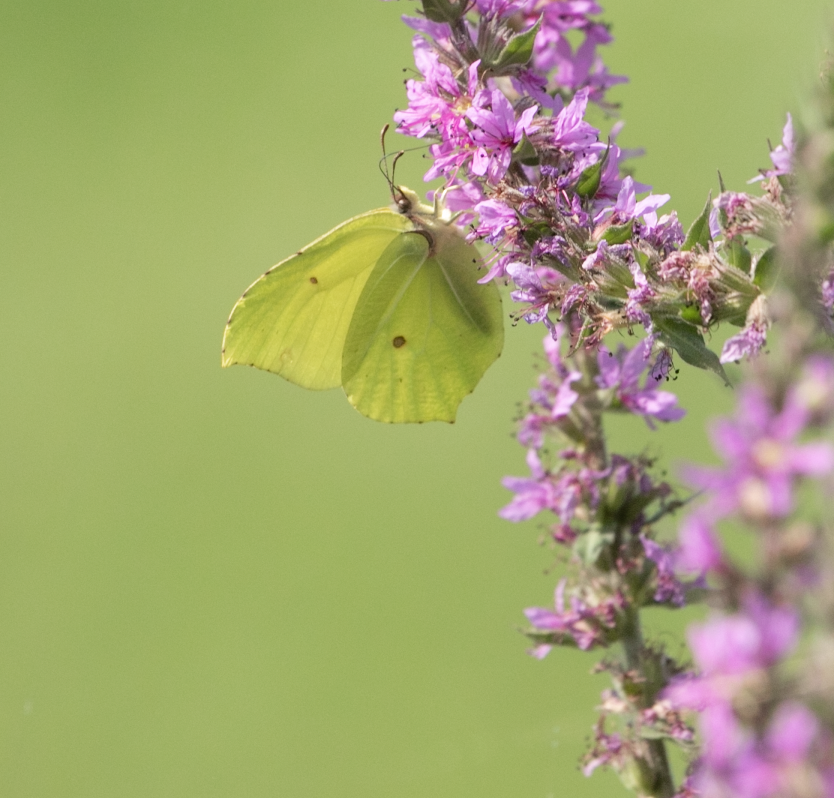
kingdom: Animalia
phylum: Arthropoda
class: Insecta
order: Lepidoptera
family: Pieridae
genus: Gonepteryx
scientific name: Gonepteryx rhamni
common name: Brimstone
